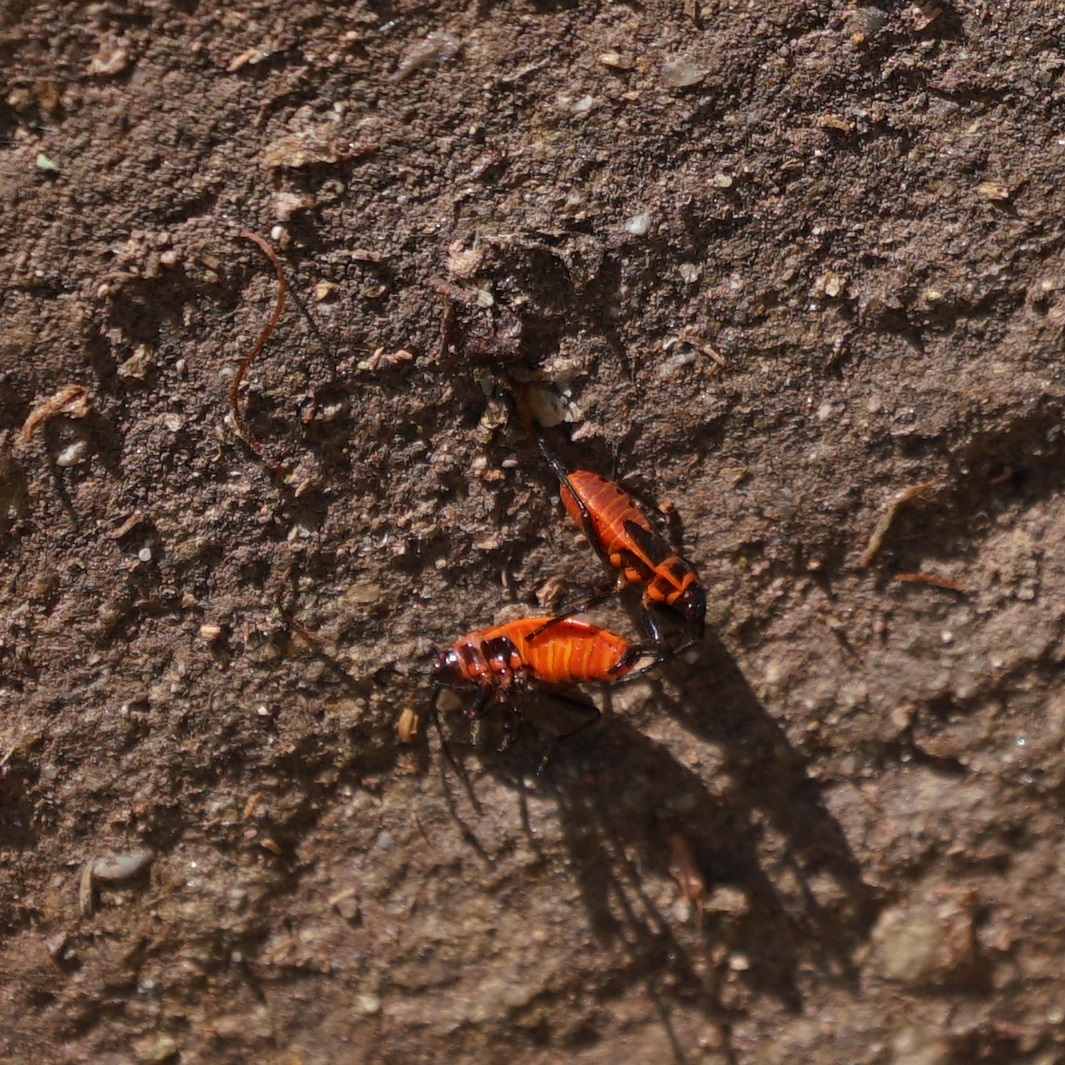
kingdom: Animalia
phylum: Arthropoda
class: Insecta
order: Hemiptera
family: Pyrrhocoridae
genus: Pyrrhocoris
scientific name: Pyrrhocoris apterus
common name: Firebug
